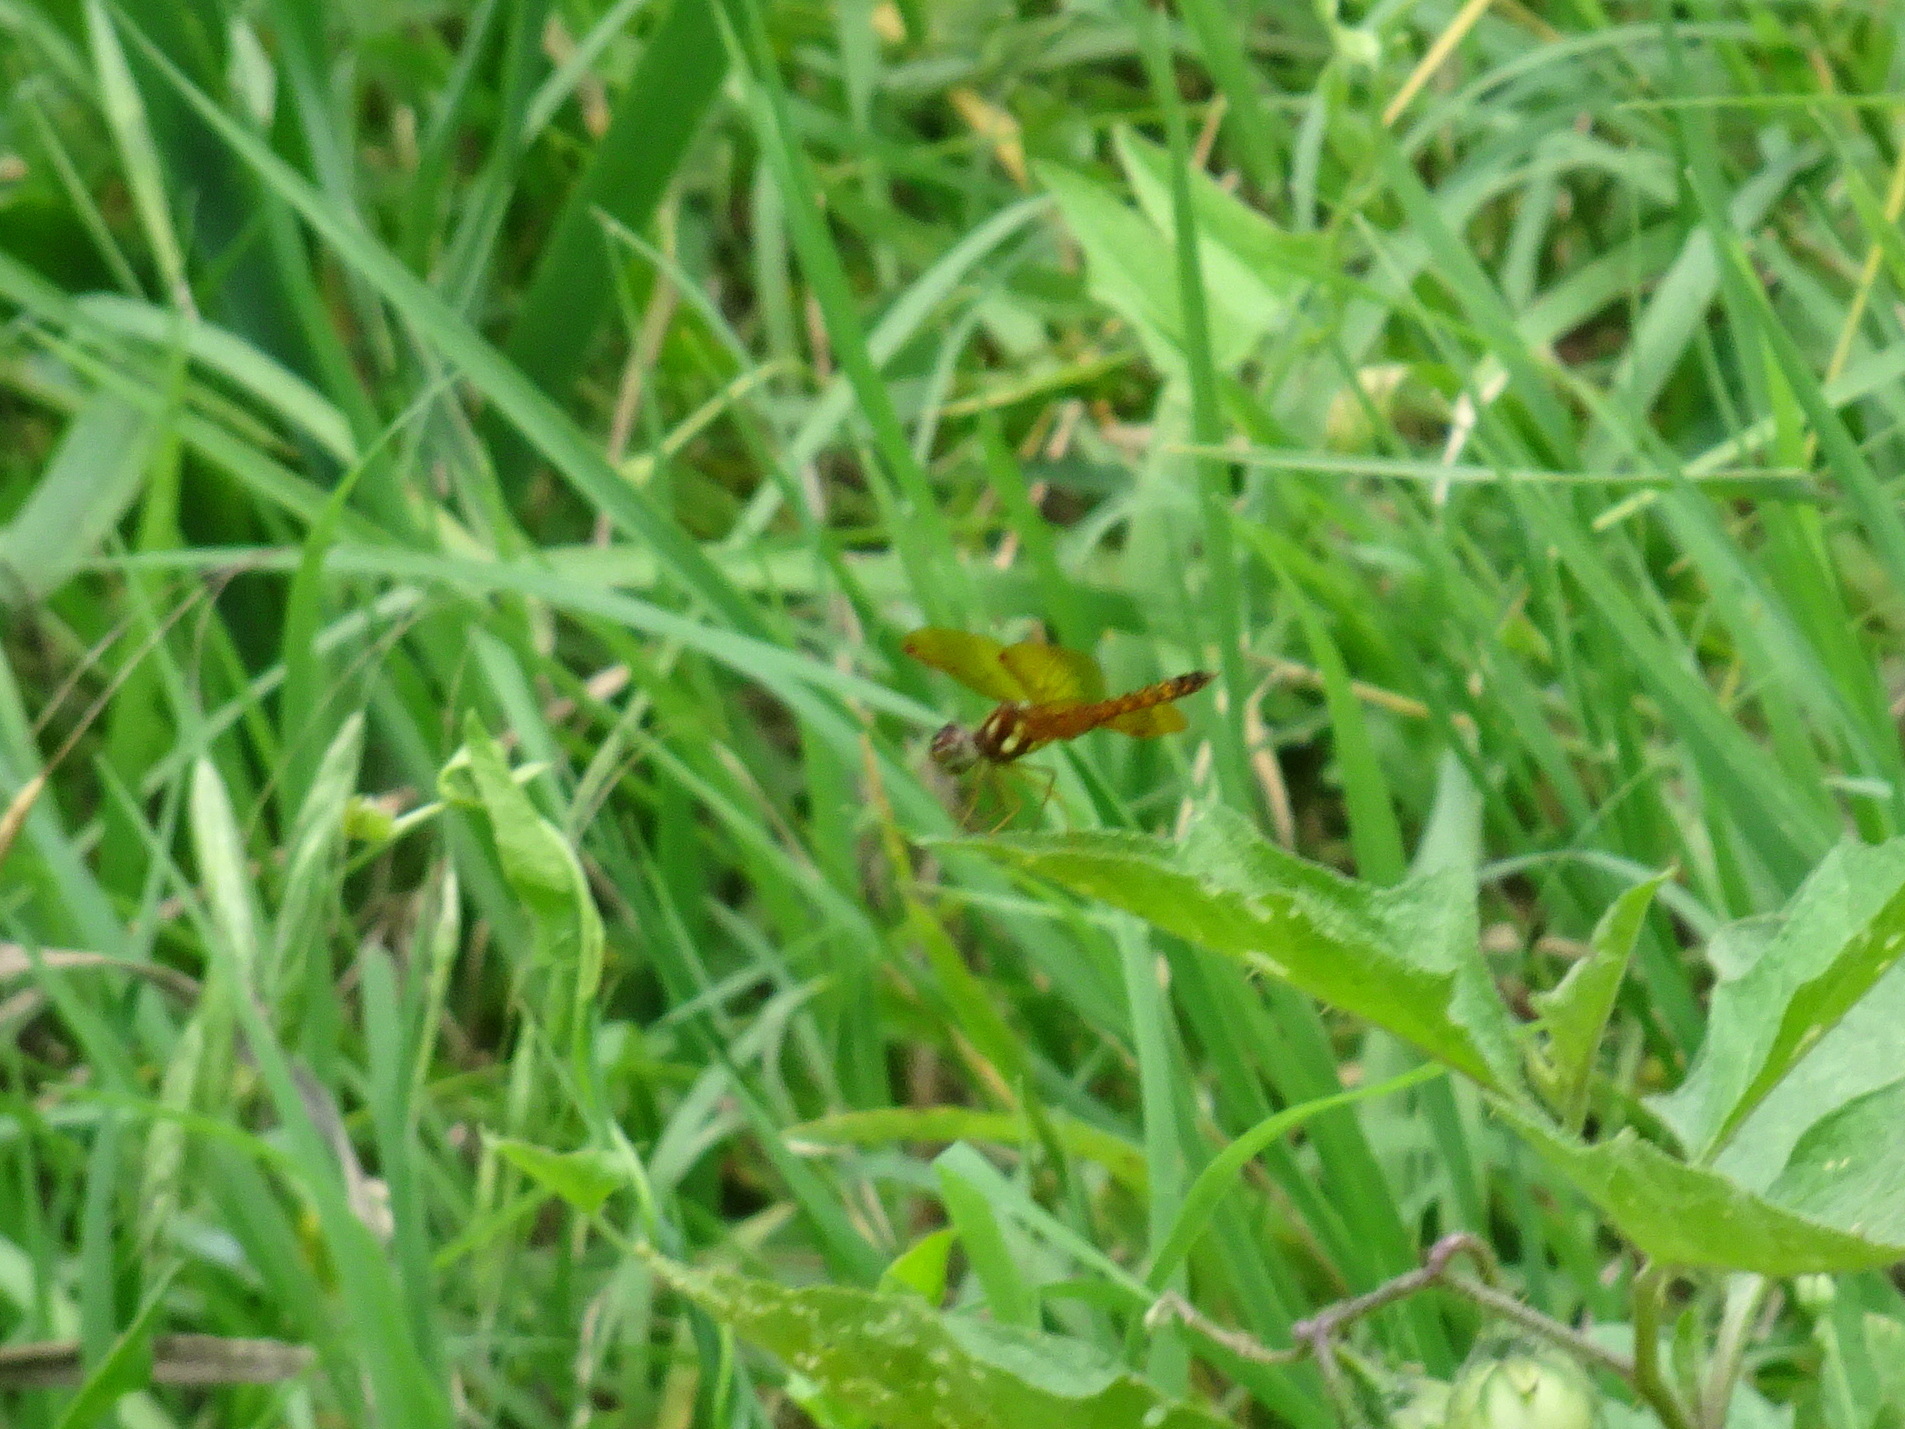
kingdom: Animalia
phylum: Arthropoda
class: Insecta
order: Odonata
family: Libellulidae
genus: Perithemis
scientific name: Perithemis tenera
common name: Eastern amberwing
